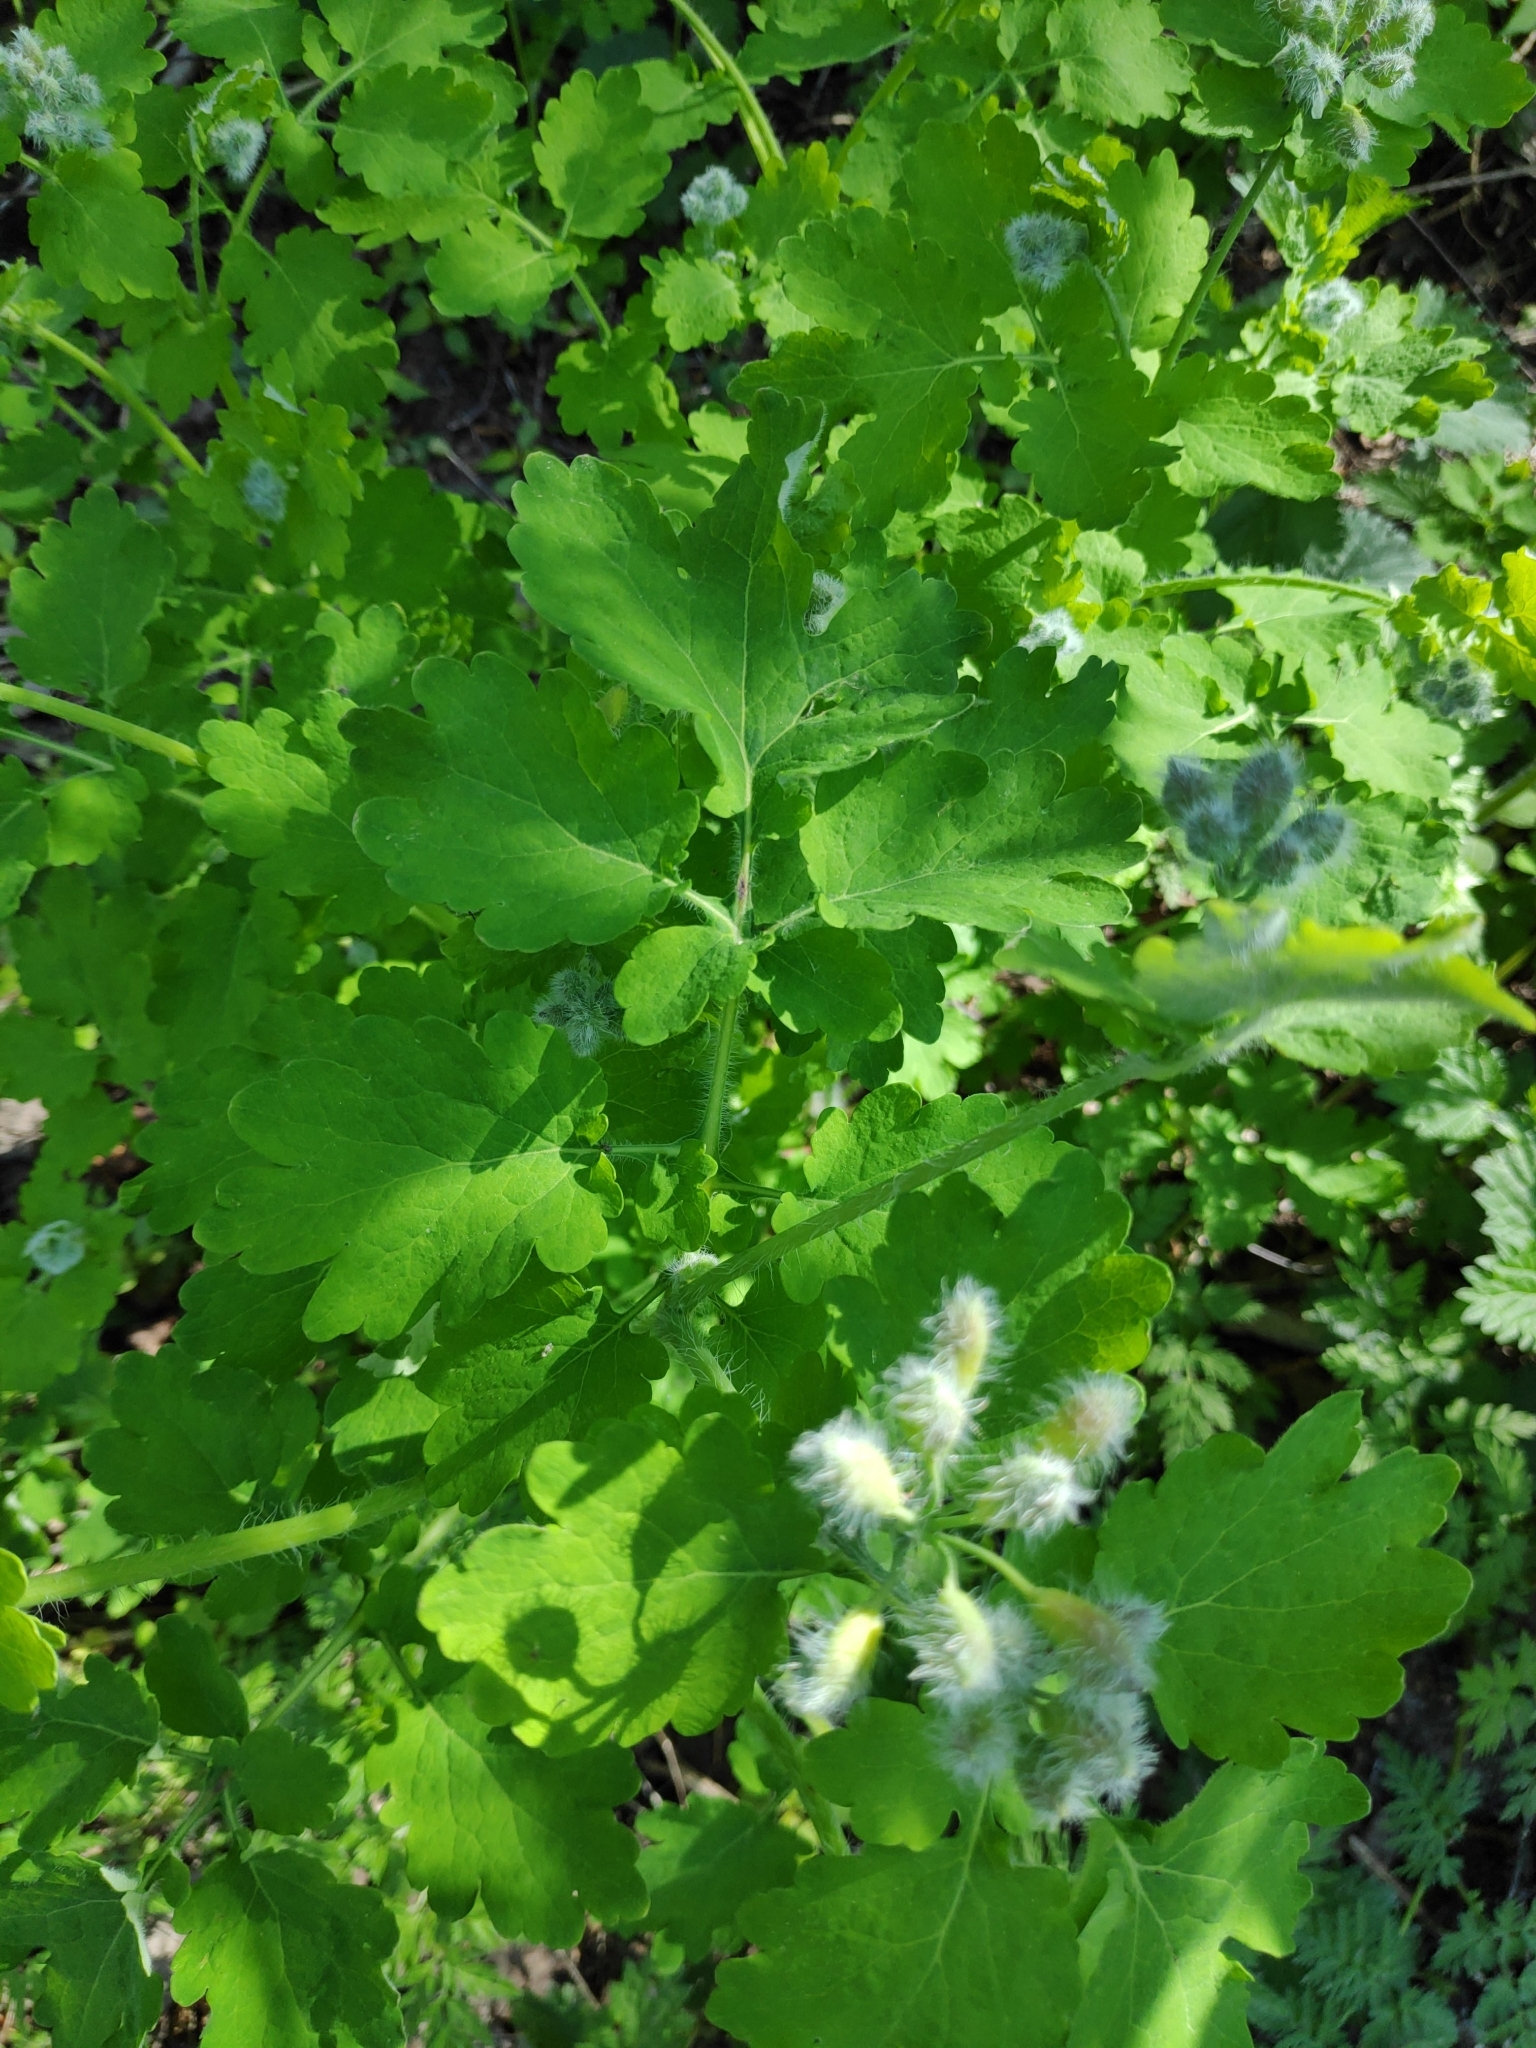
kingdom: Plantae
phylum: Tracheophyta
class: Magnoliopsida
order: Ranunculales
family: Papaveraceae
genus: Chelidonium
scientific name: Chelidonium majus
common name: Greater celandine
